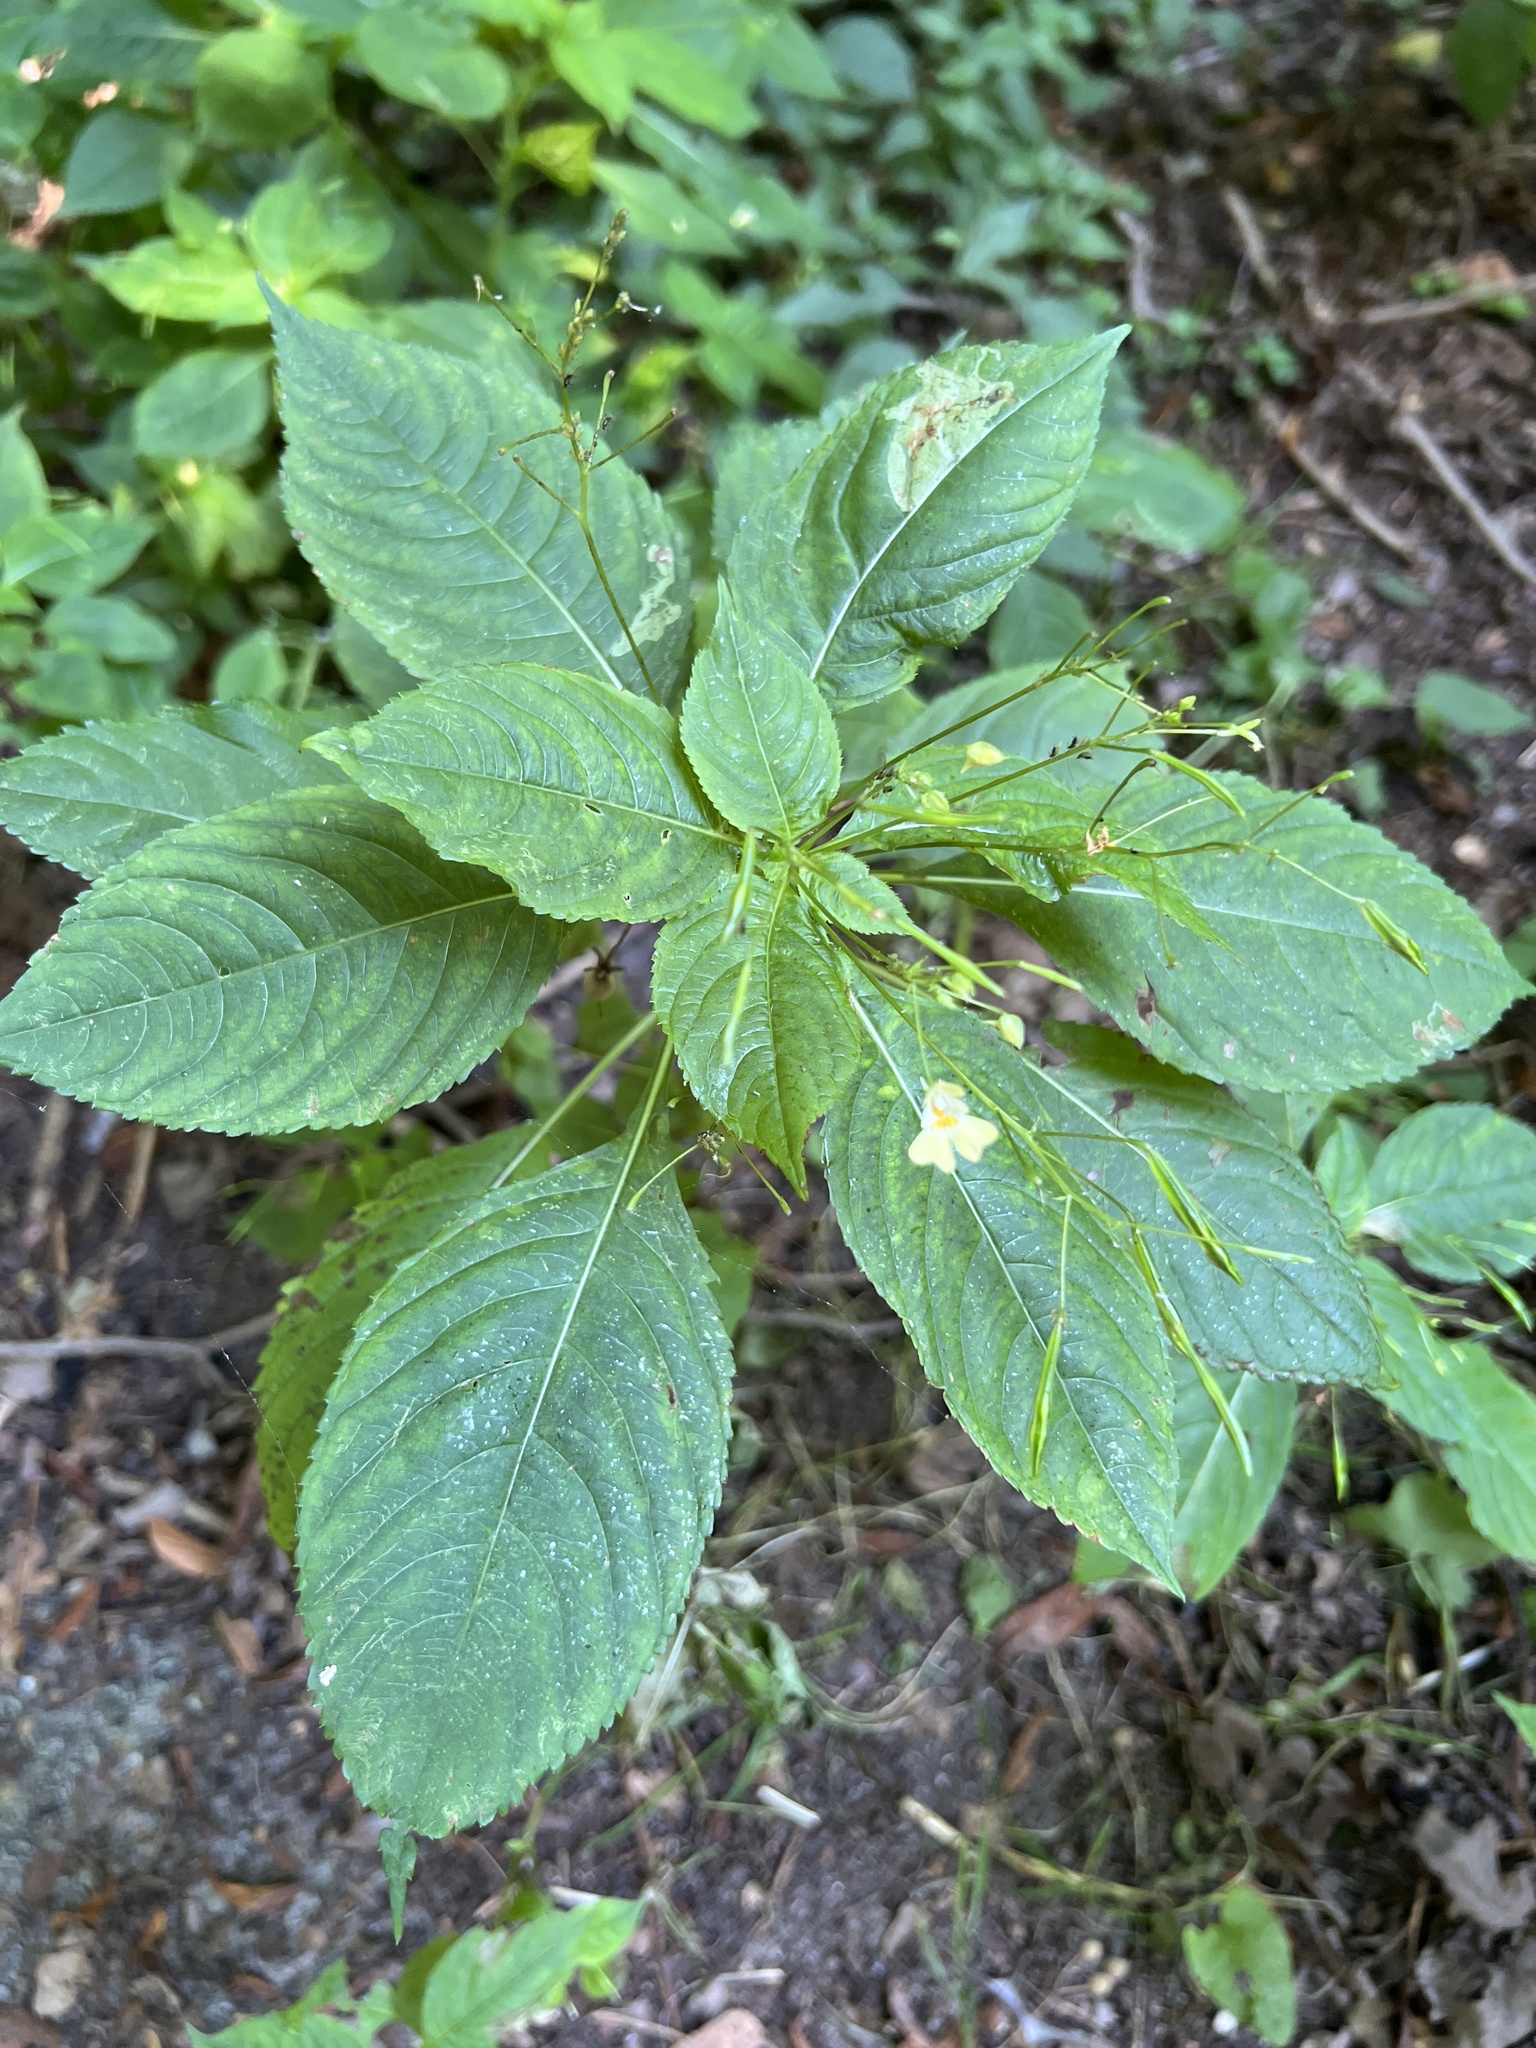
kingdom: Plantae
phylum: Tracheophyta
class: Magnoliopsida
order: Ericales
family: Balsaminaceae
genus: Impatiens
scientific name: Impatiens parviflora
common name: Small balsam
